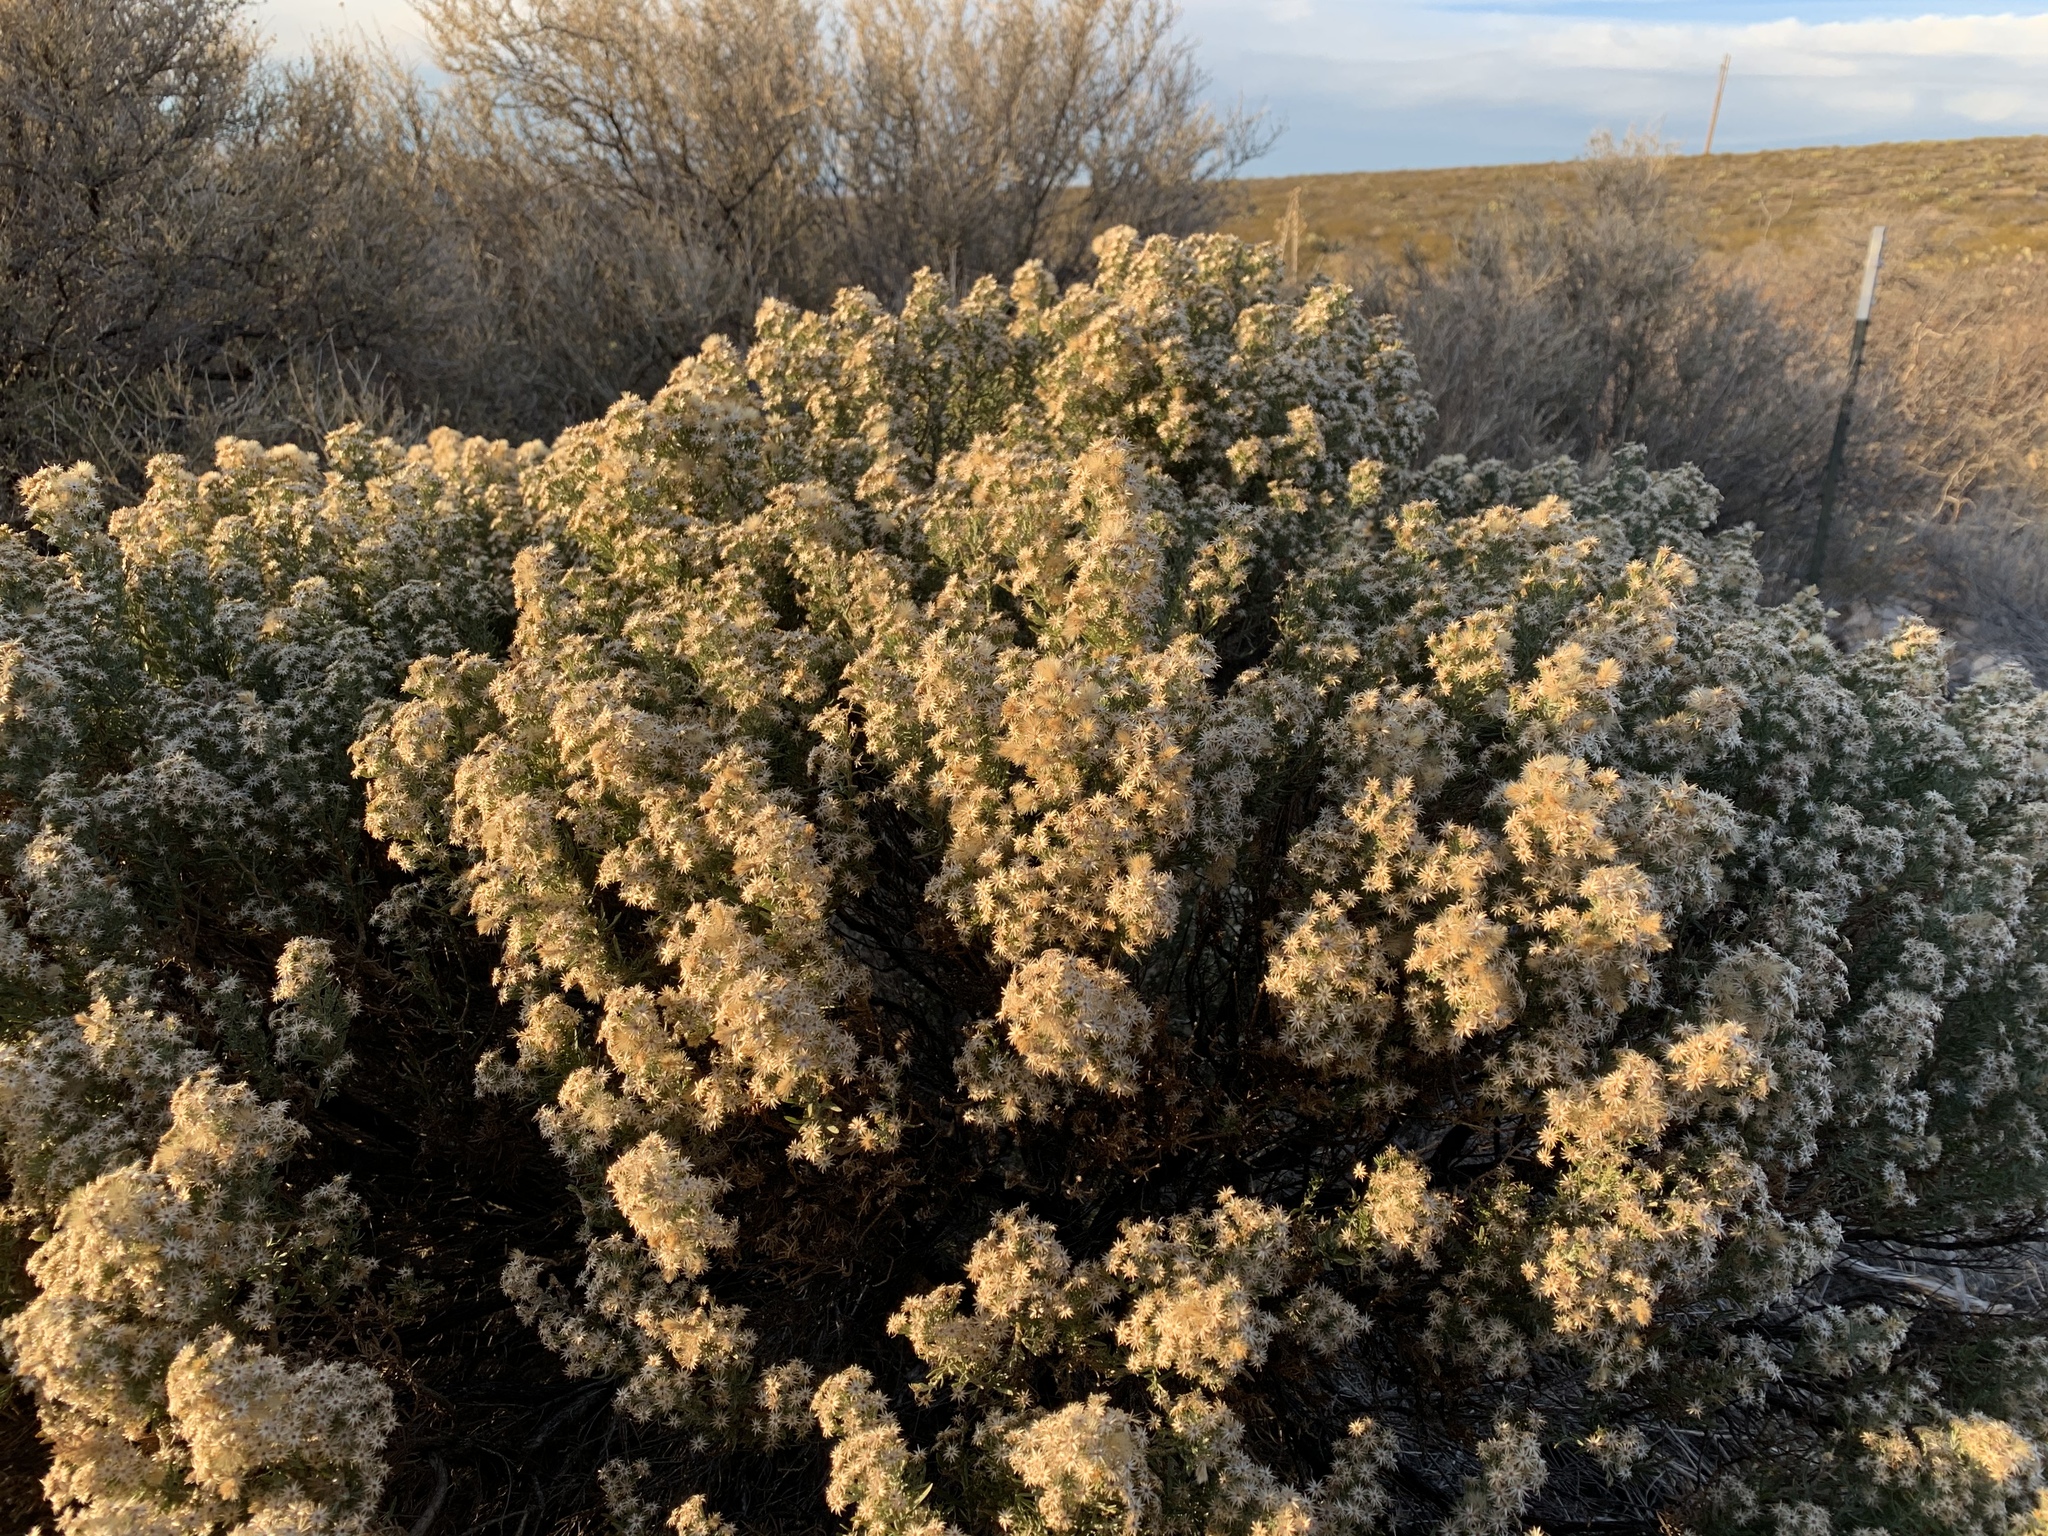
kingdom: Plantae
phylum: Tracheophyta
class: Magnoliopsida
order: Asterales
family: Asteraceae
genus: Ericameria
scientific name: Ericameria laricifolia
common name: Turpentine-bush
